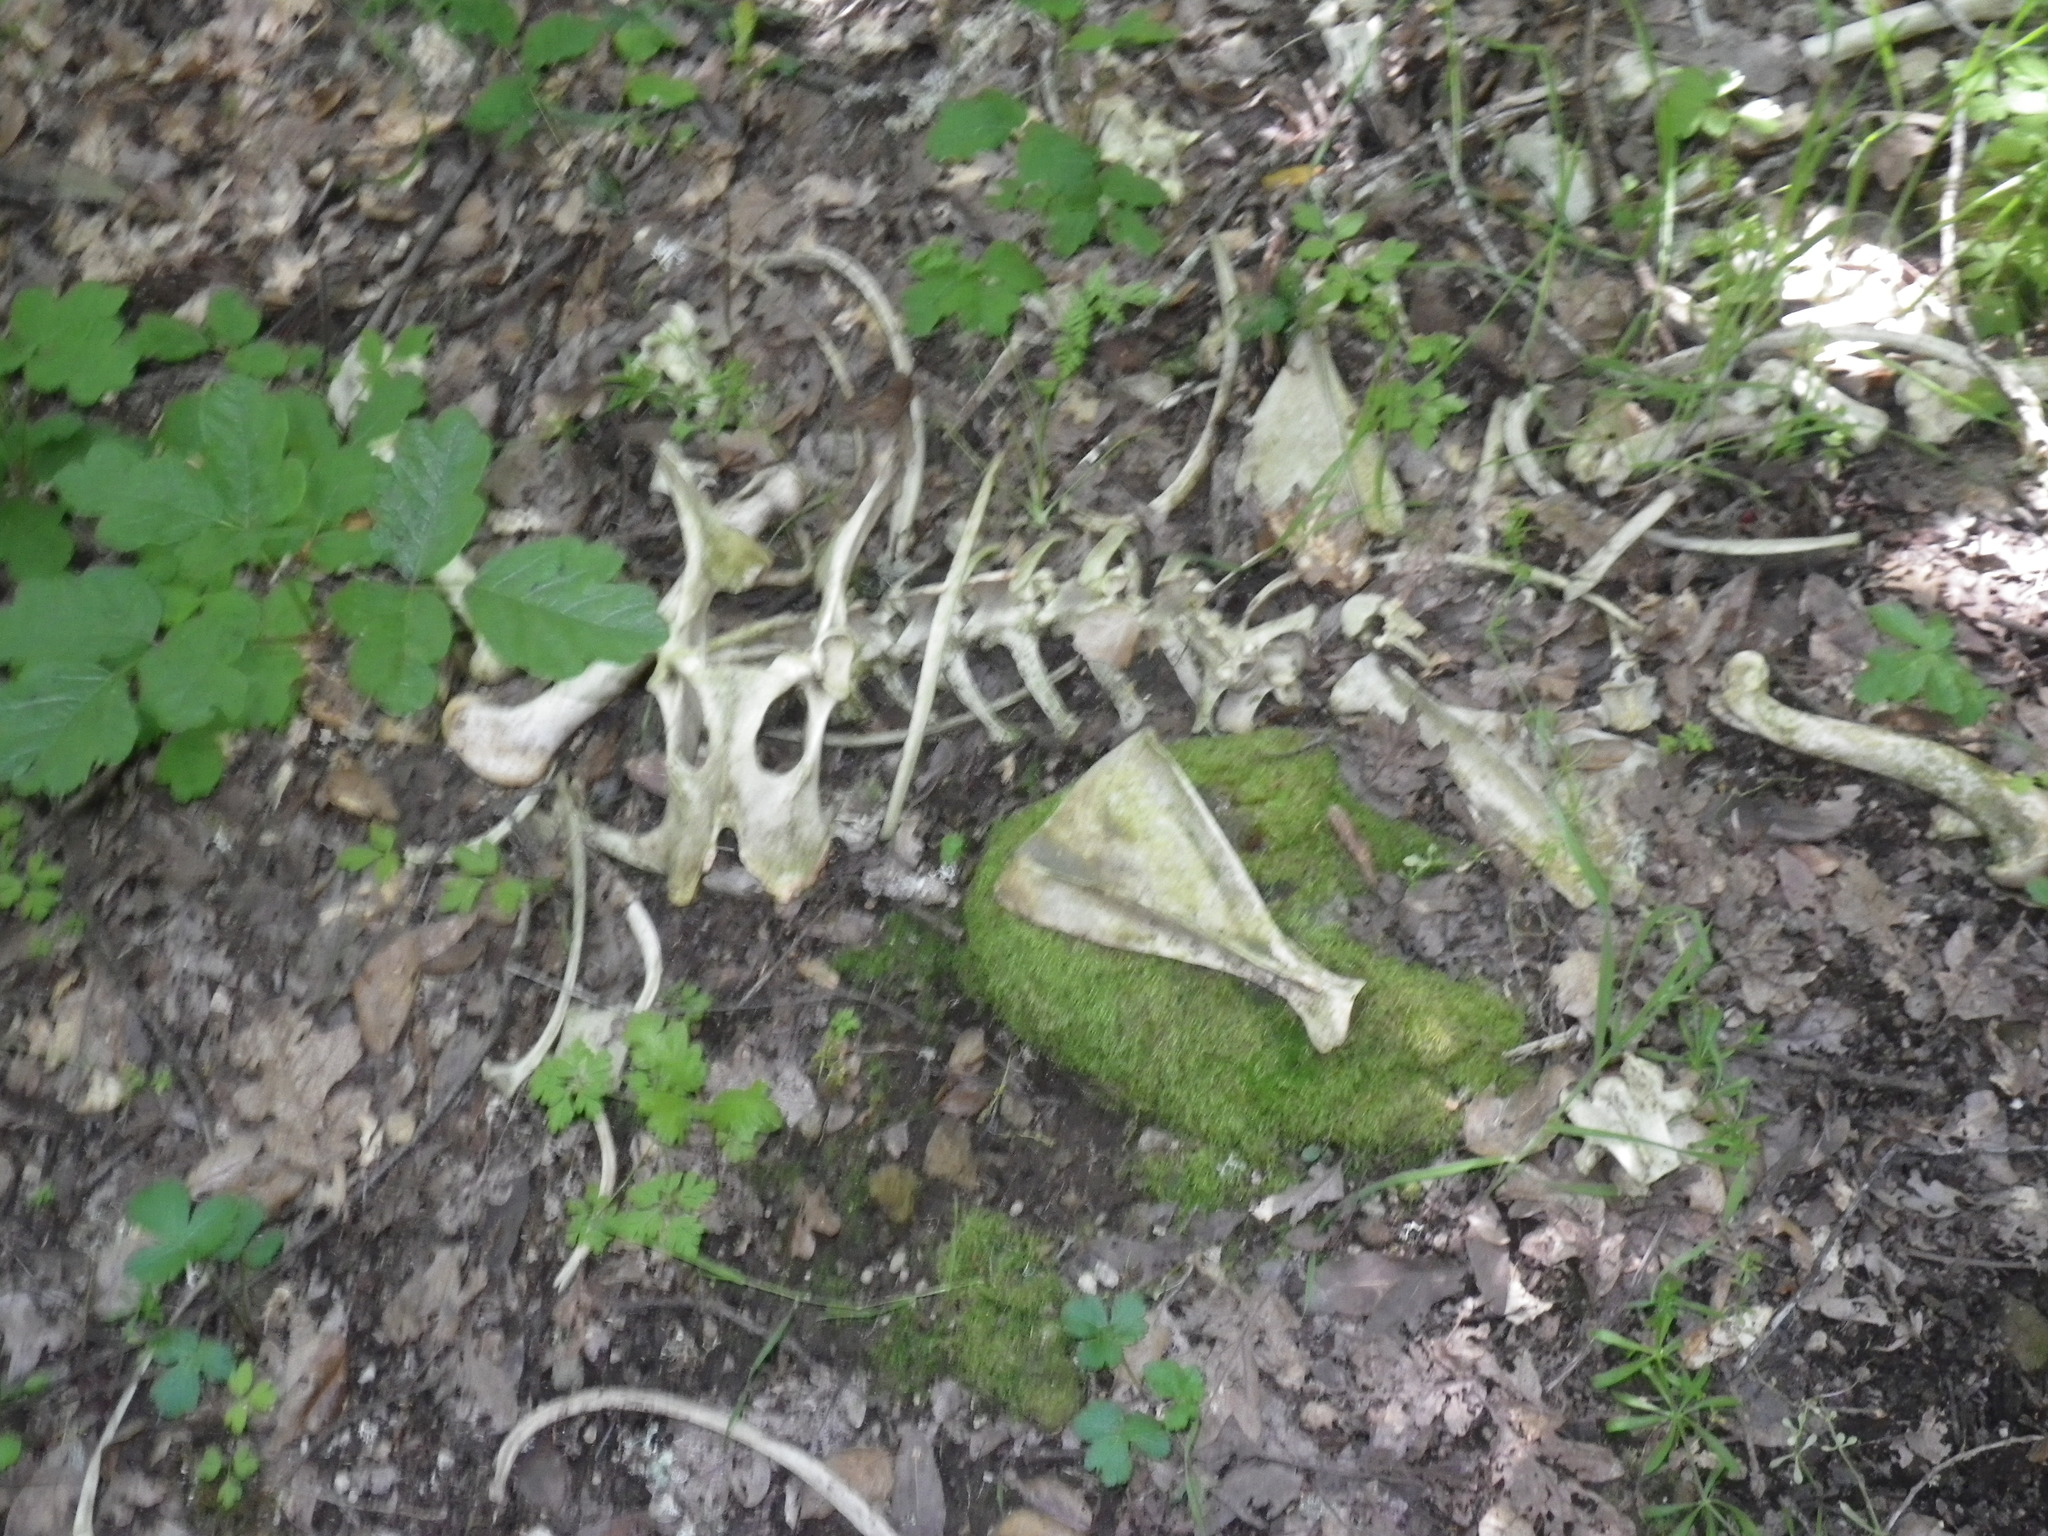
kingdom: Animalia
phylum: Chordata
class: Mammalia
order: Artiodactyla
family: Cervidae
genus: Odocoileus
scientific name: Odocoileus hemionus
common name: Mule deer
